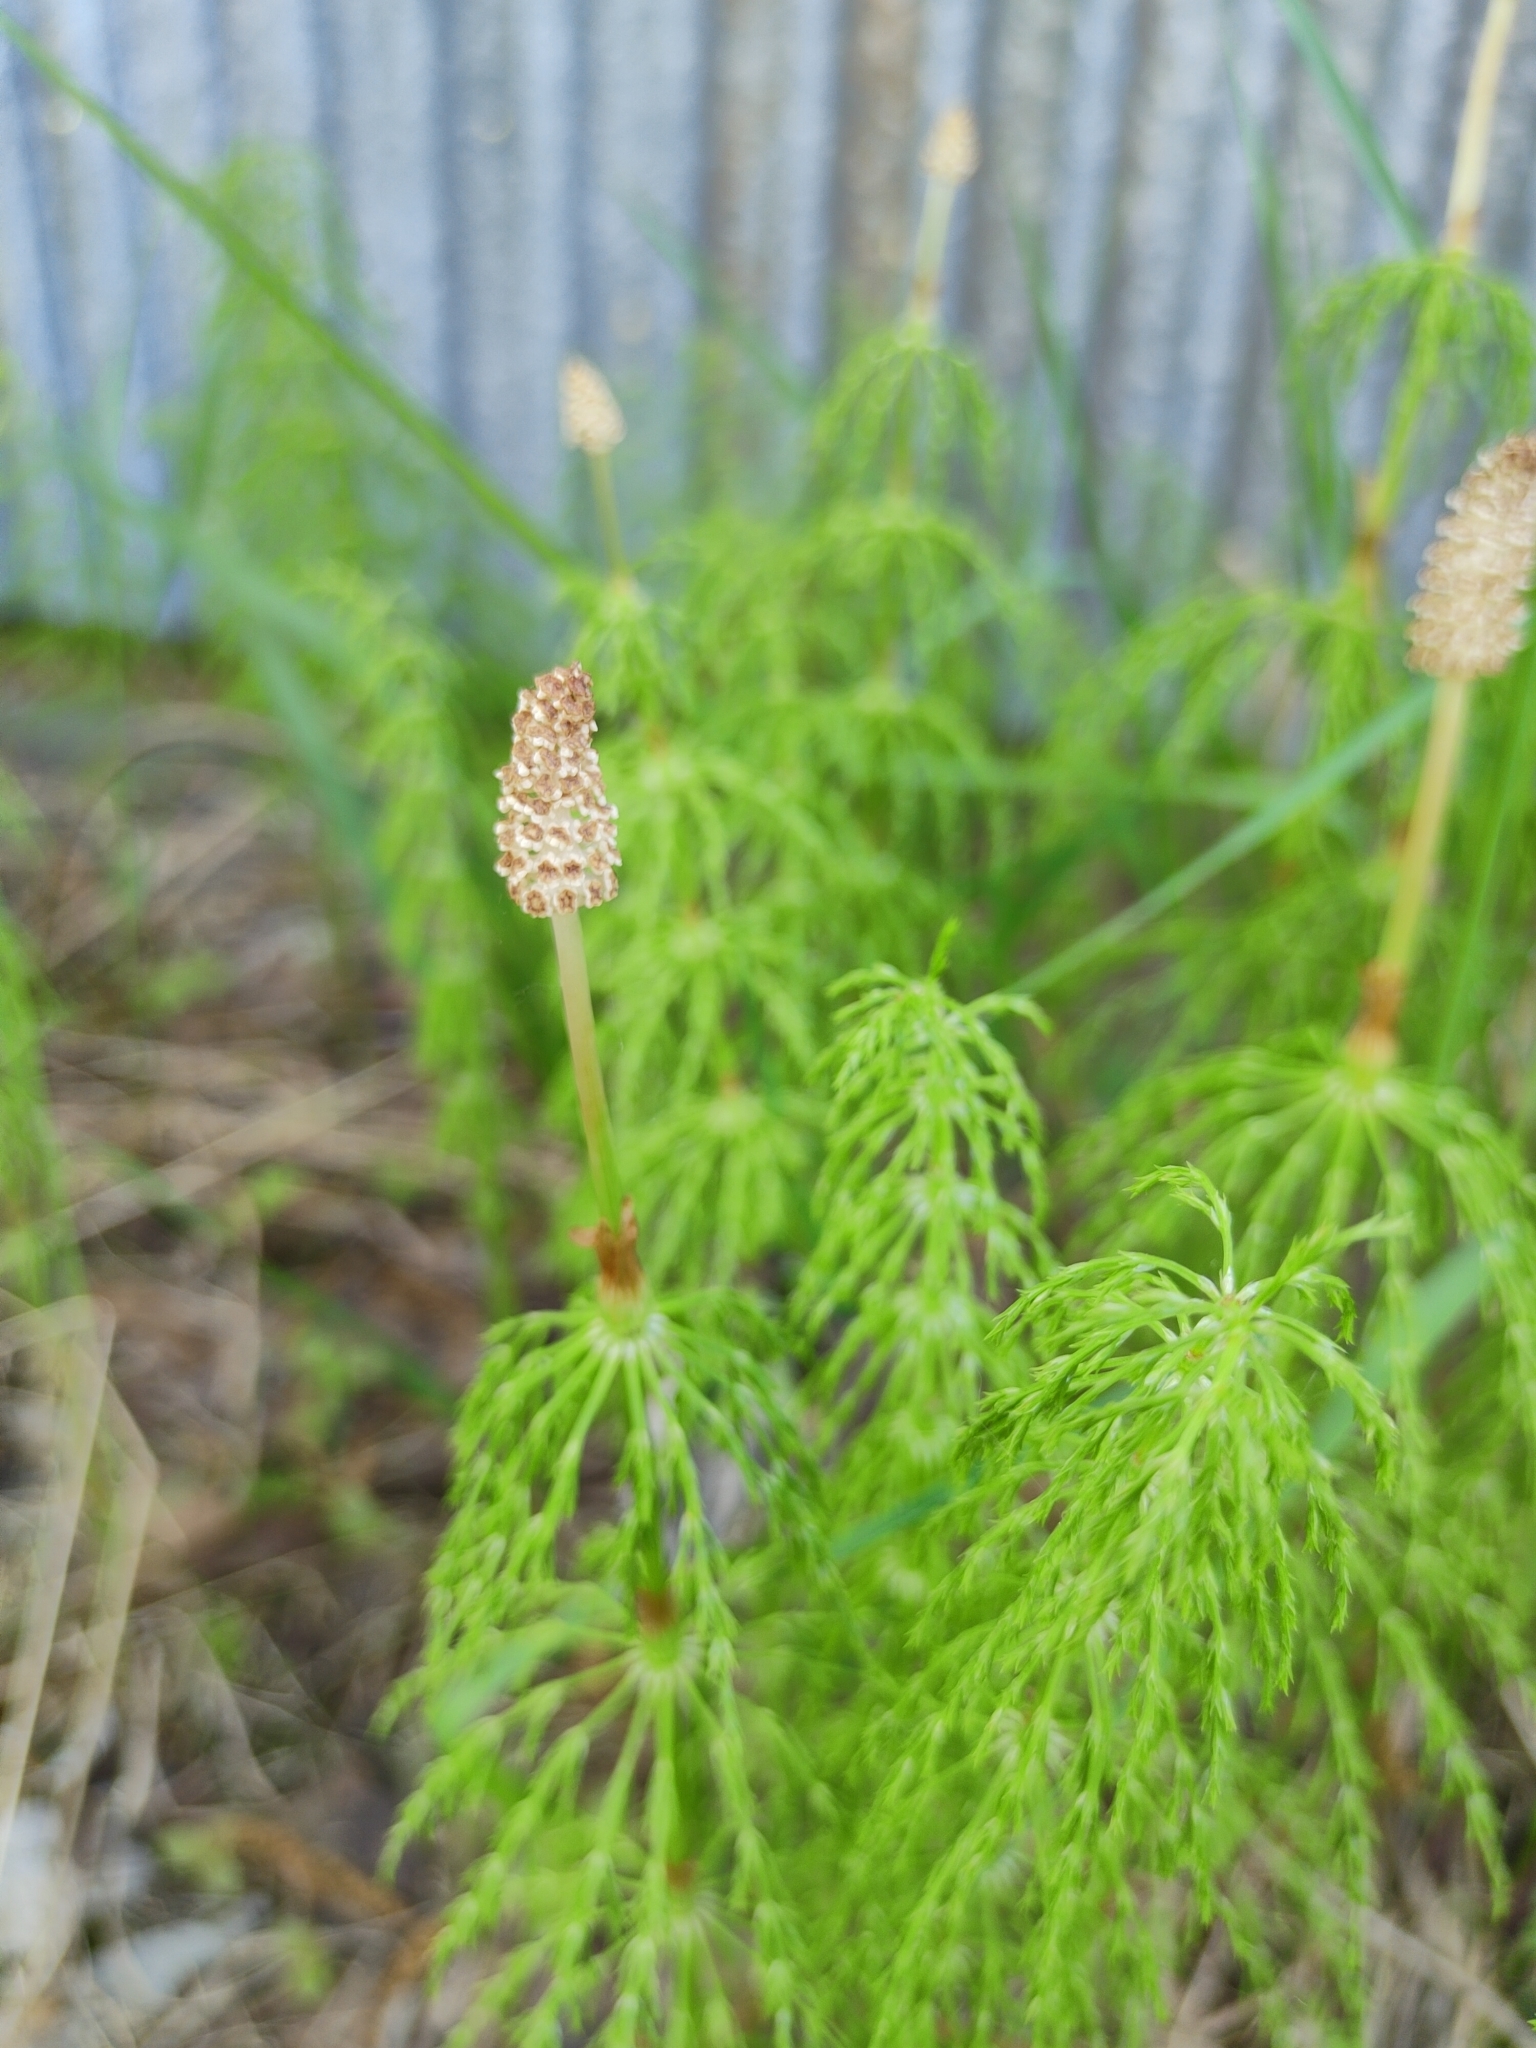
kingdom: Plantae
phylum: Tracheophyta
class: Polypodiopsida
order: Equisetales
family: Equisetaceae
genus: Equisetum
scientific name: Equisetum sylvaticum
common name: Wood horsetail
